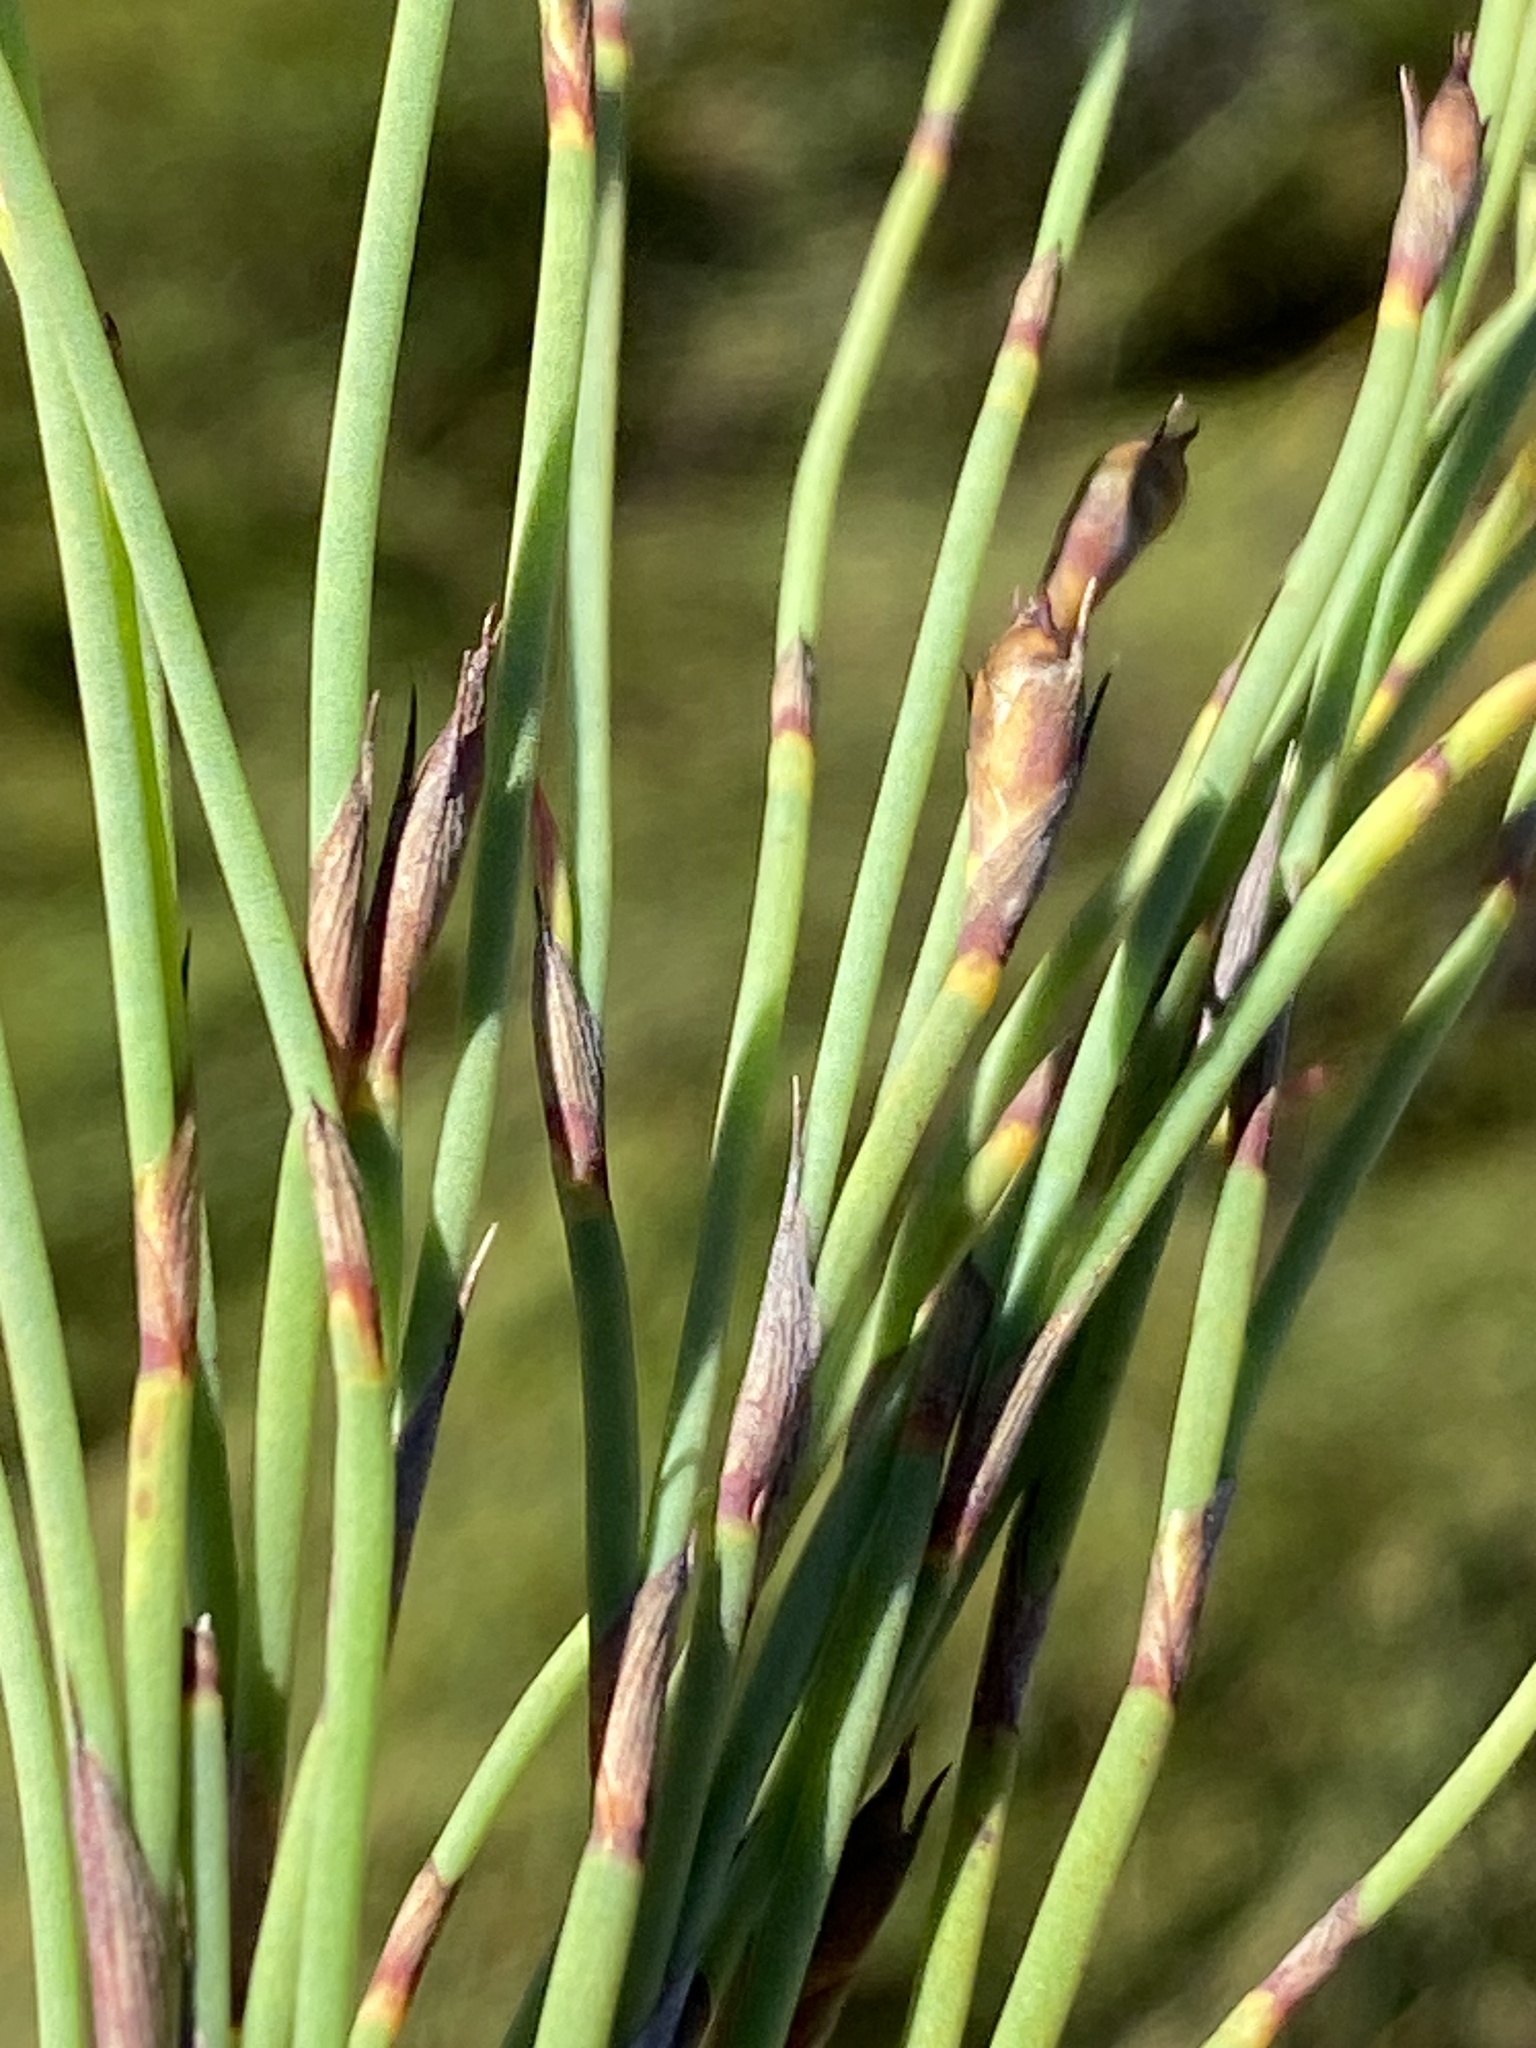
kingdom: Plantae
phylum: Tracheophyta
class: Liliopsida
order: Poales
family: Restionaceae
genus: Mastersiella
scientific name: Mastersiella spathulata
